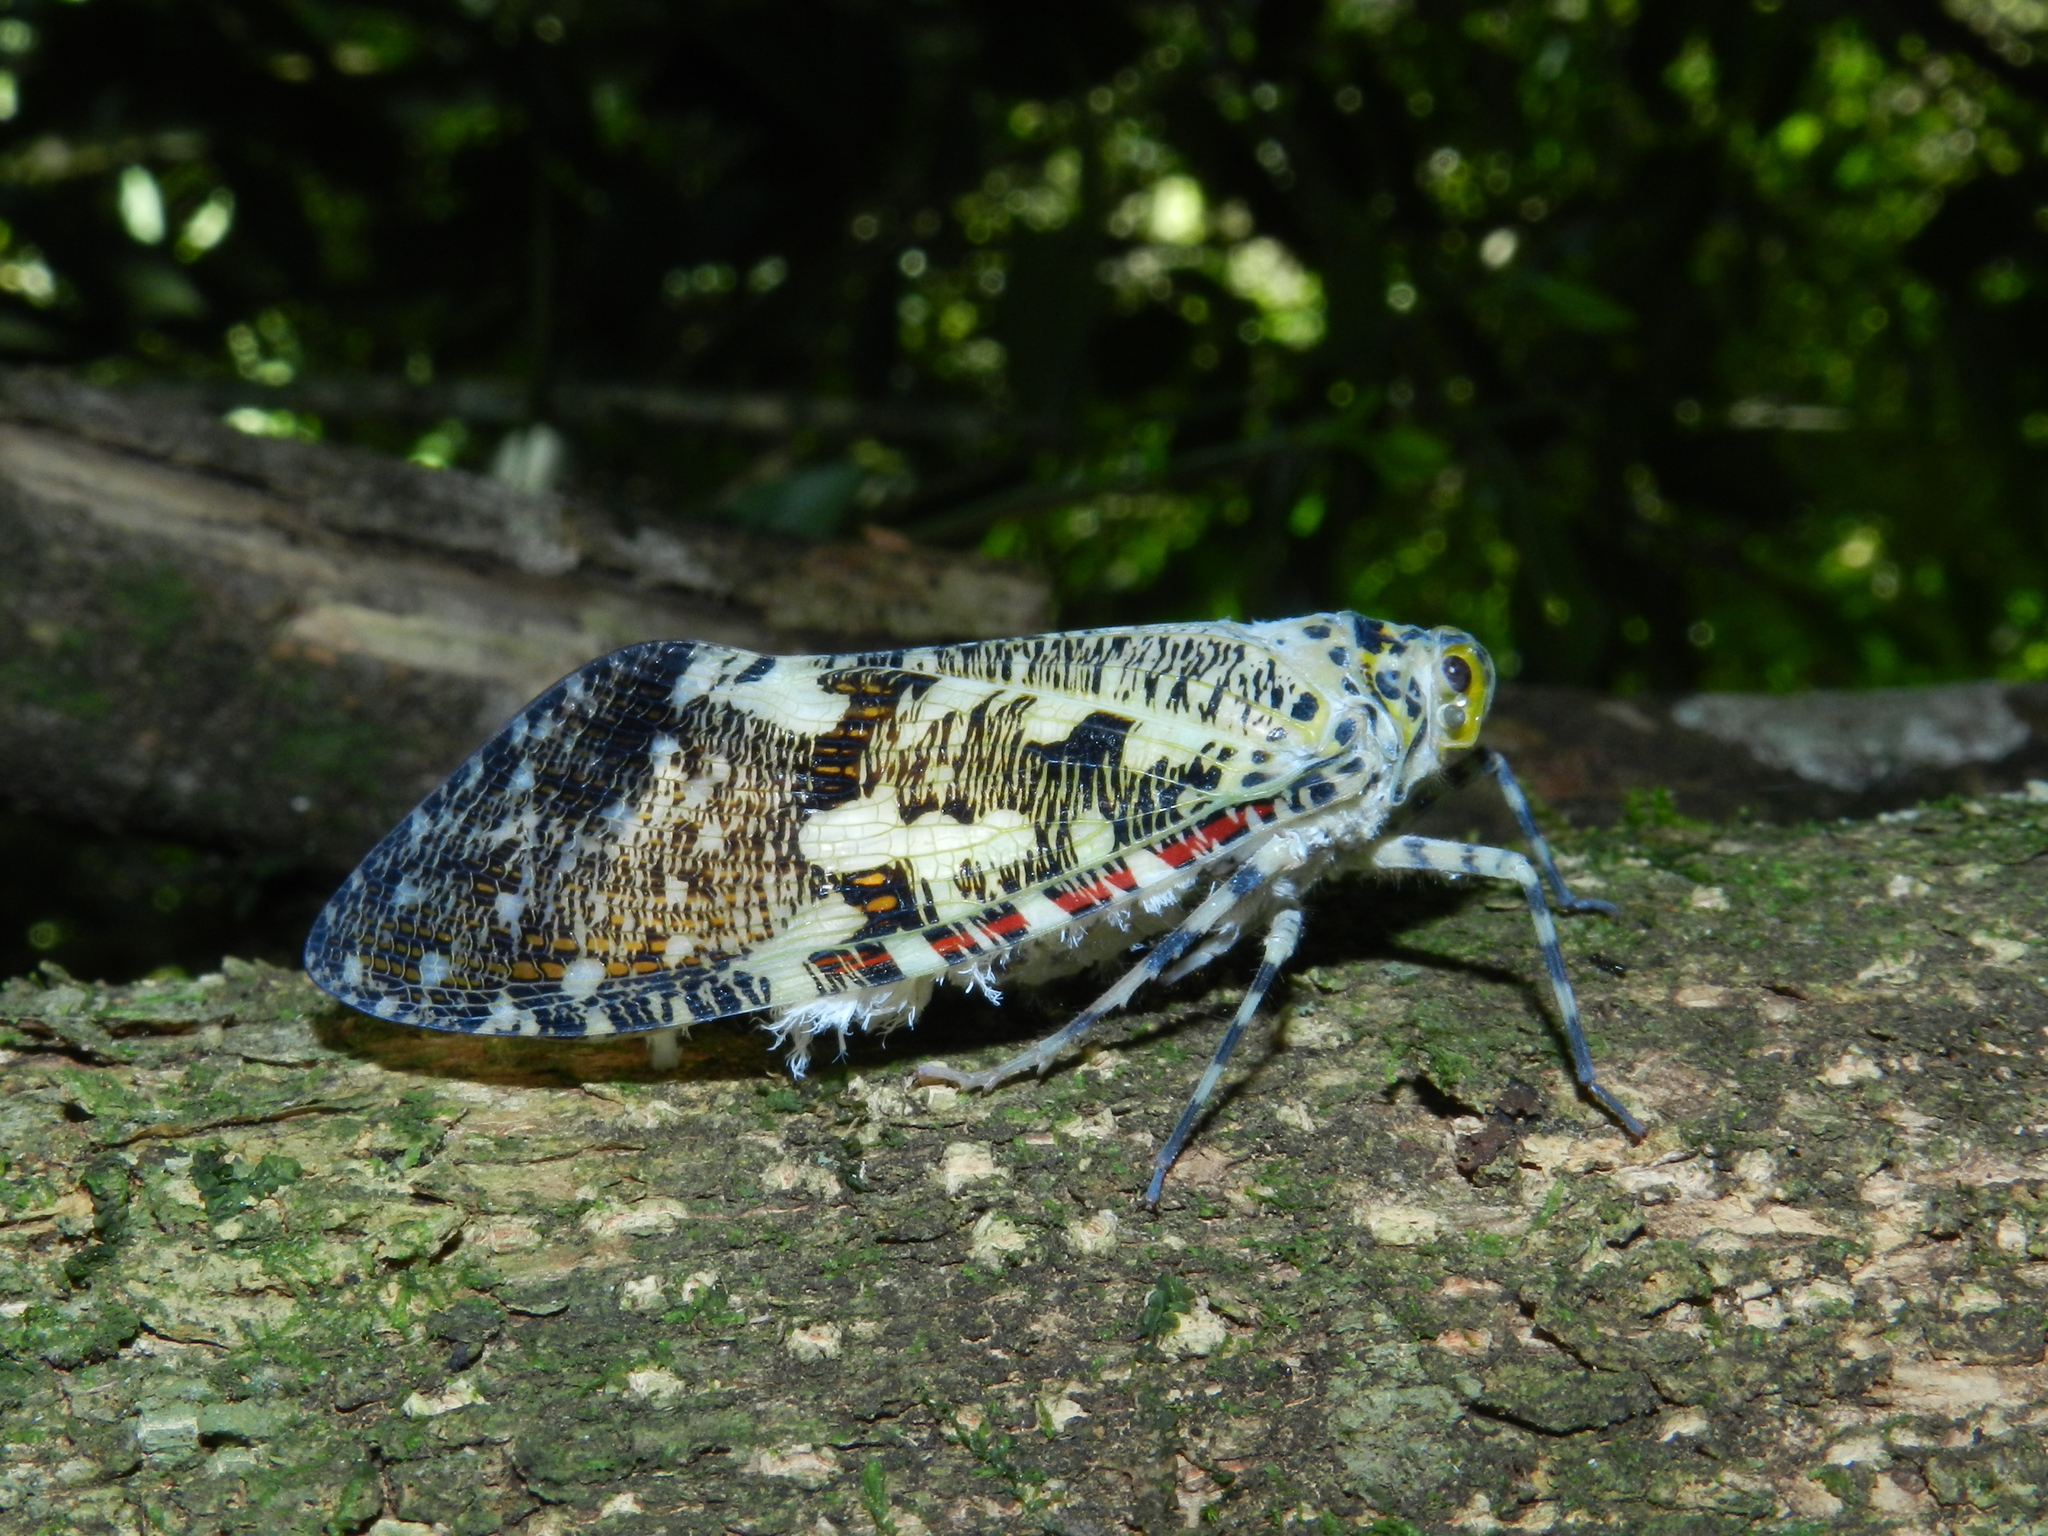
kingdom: Animalia
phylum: Arthropoda
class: Insecta
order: Hemiptera
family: Fulgoridae
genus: Phenax
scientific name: Phenax variegata
